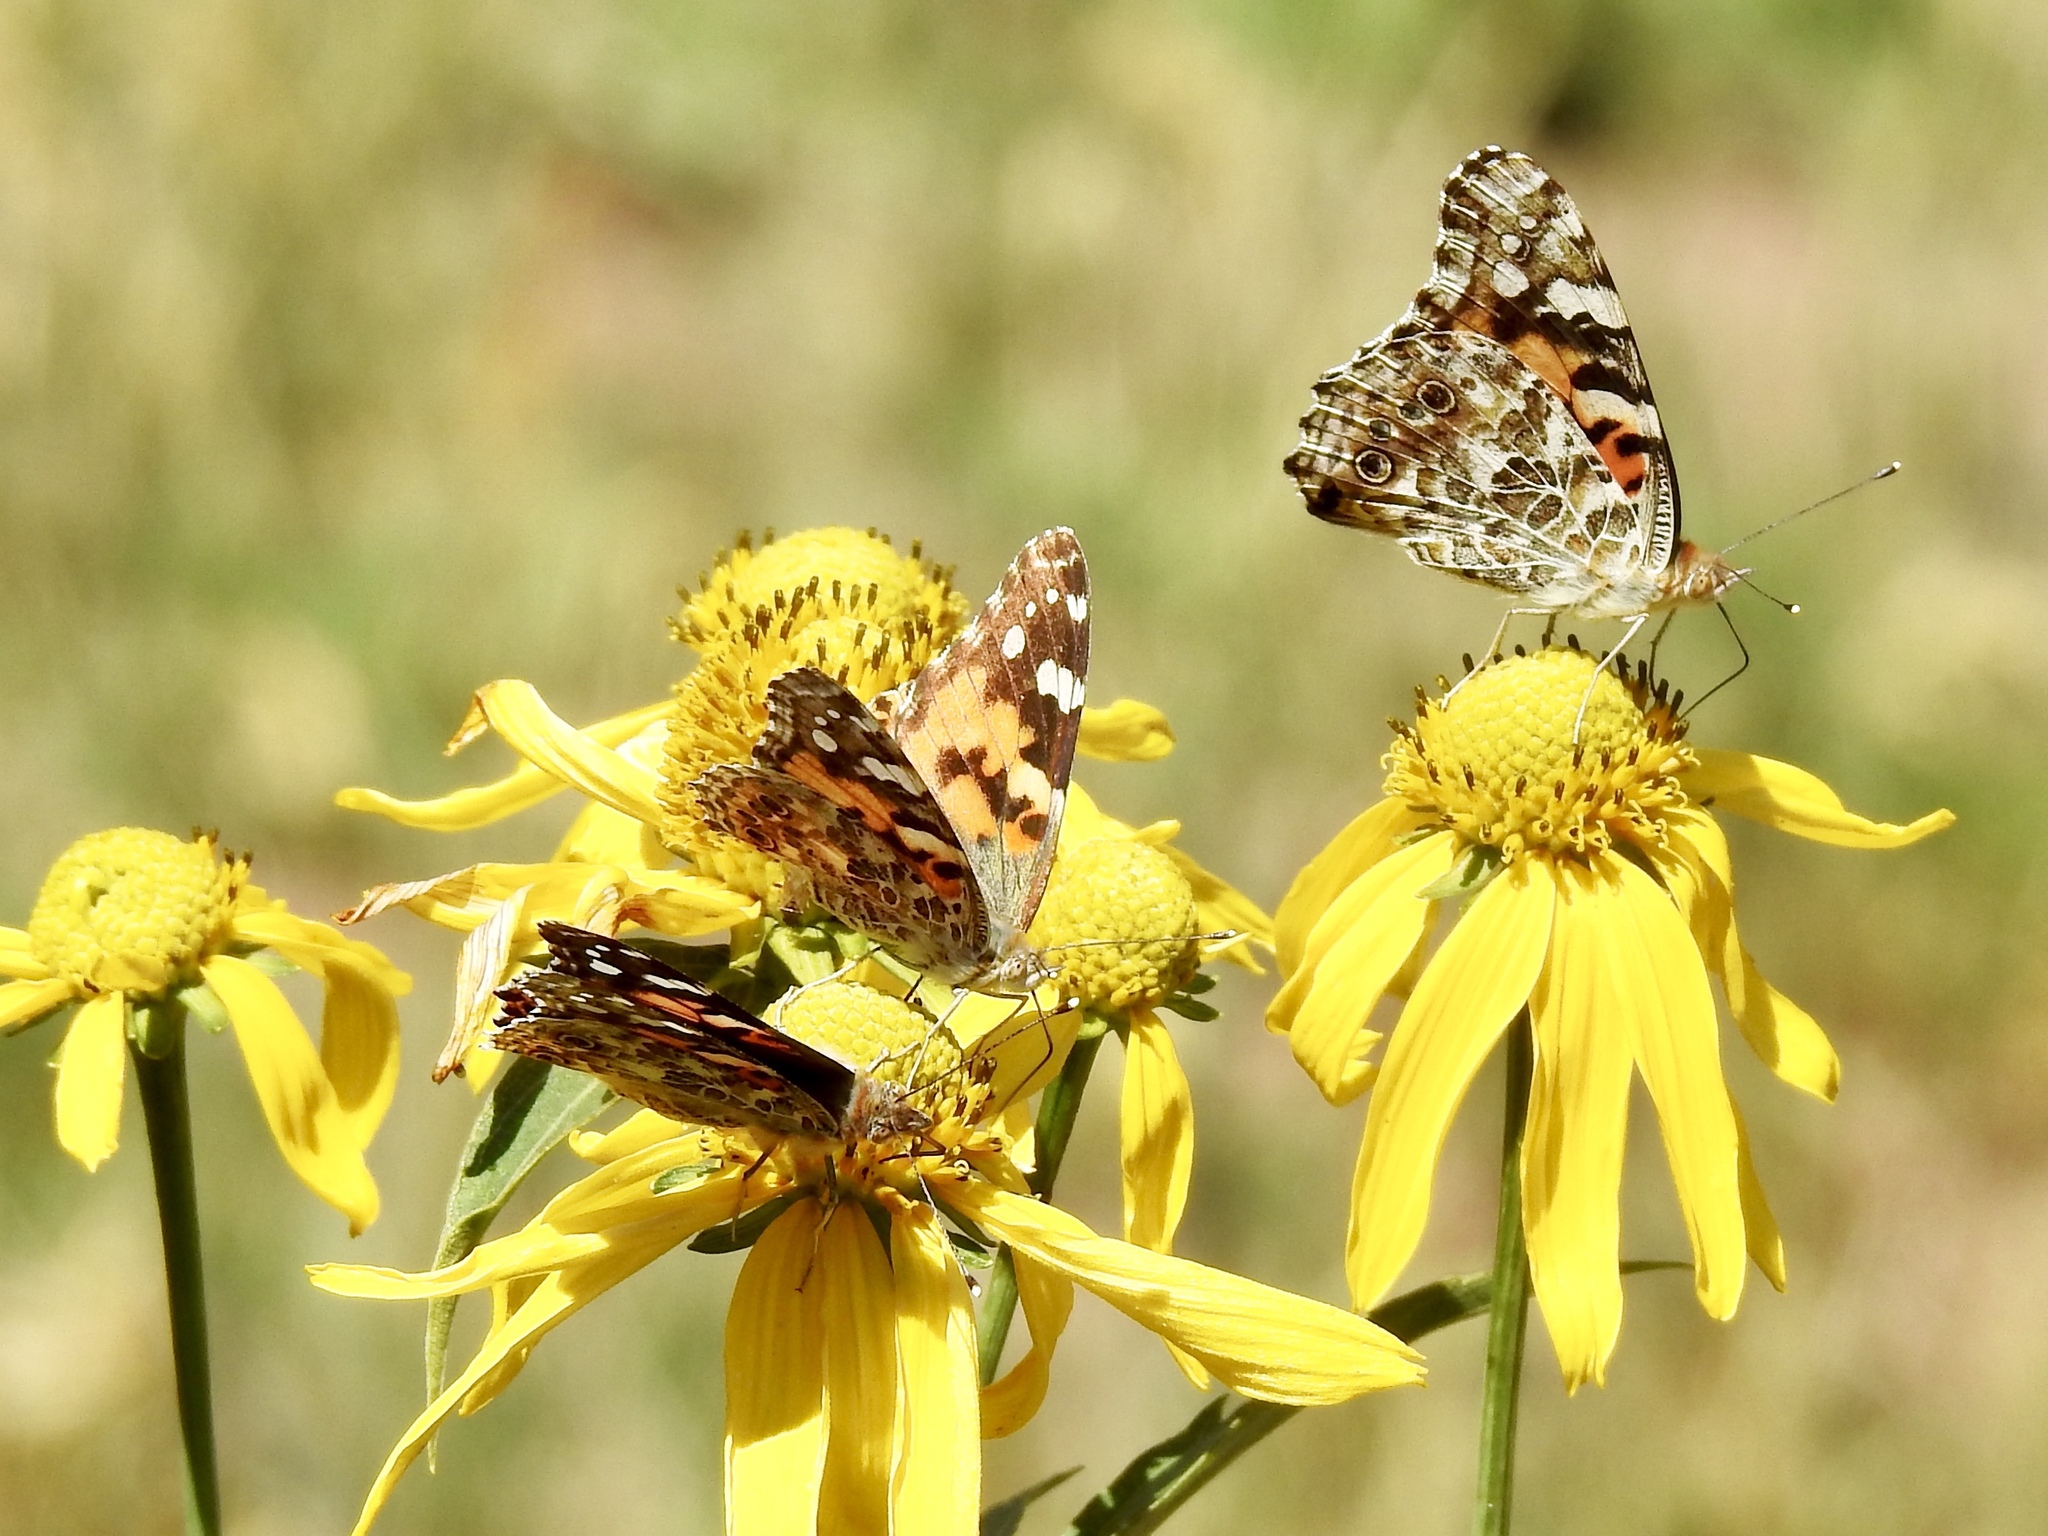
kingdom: Animalia
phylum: Arthropoda
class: Insecta
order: Lepidoptera
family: Nymphalidae
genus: Vanessa
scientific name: Vanessa cardui
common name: Painted lady
